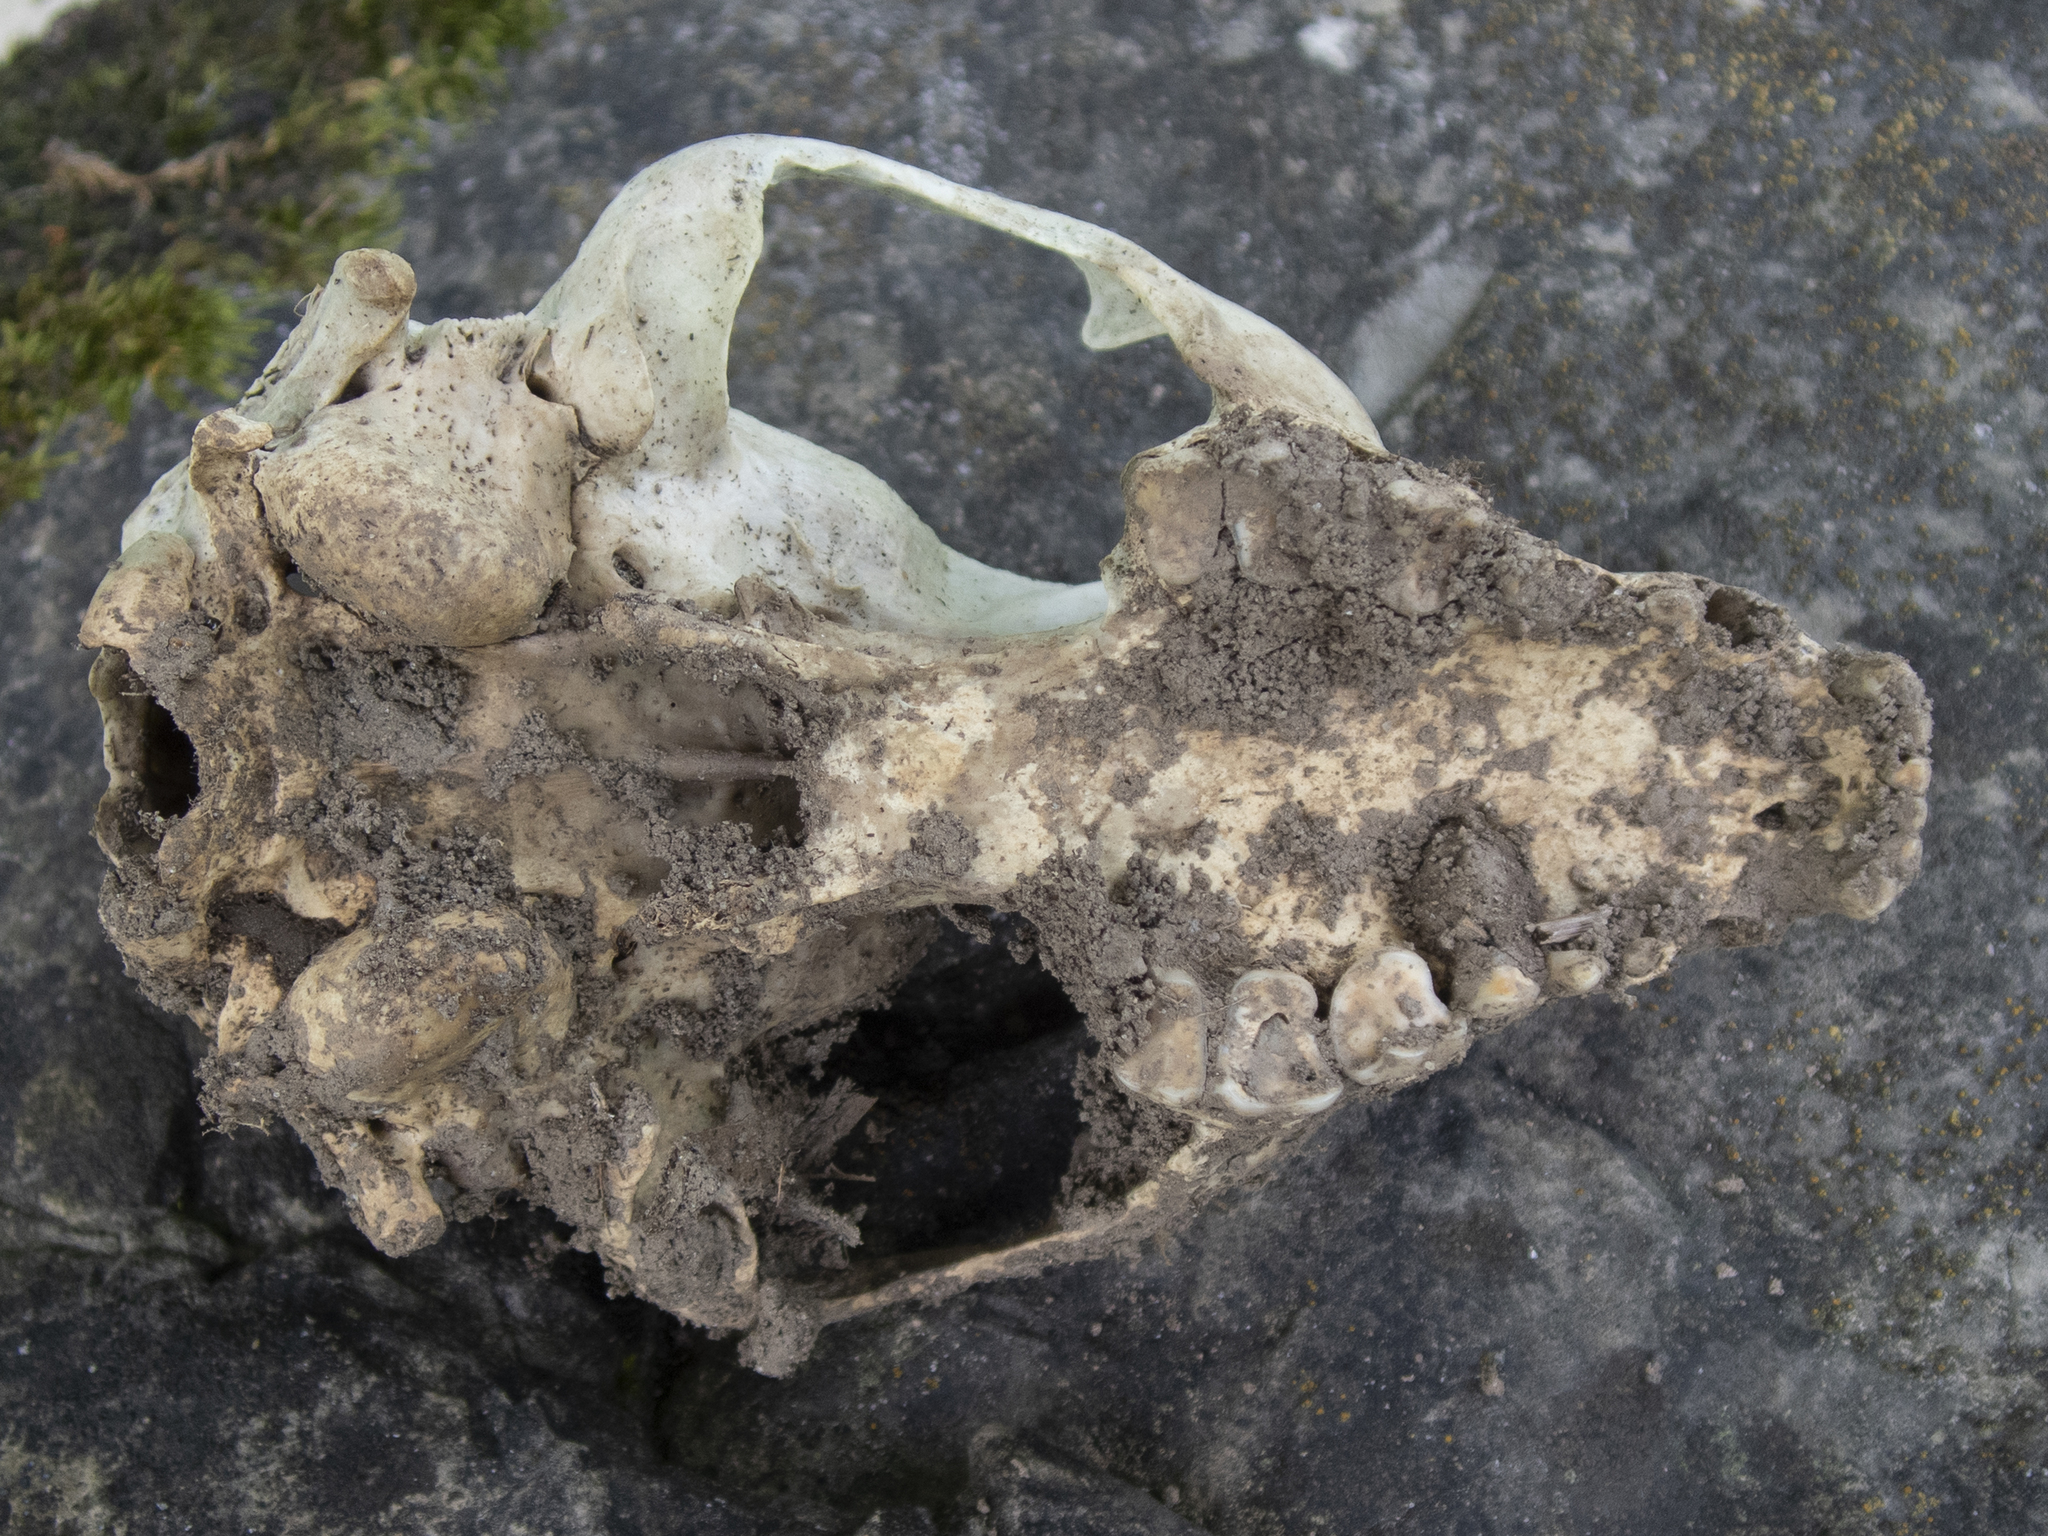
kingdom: Animalia
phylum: Chordata
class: Mammalia
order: Carnivora
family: Procyonidae
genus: Procyon
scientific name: Procyon lotor
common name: Raccoon
